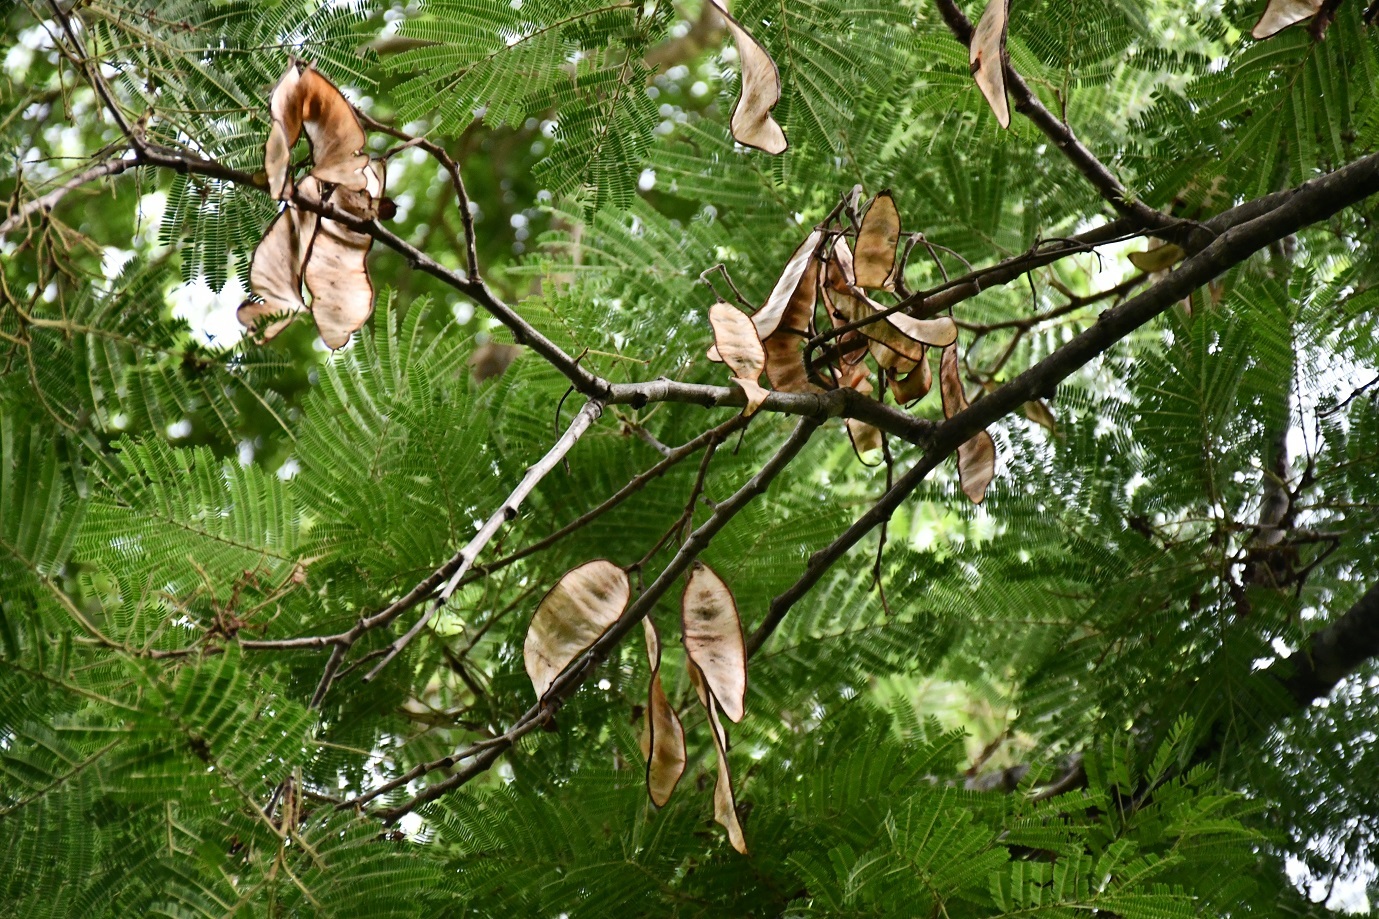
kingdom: Plantae
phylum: Tracheophyta
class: Magnoliopsida
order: Fabales
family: Fabaceae
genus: Lysiloma
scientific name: Lysiloma divaricatum
